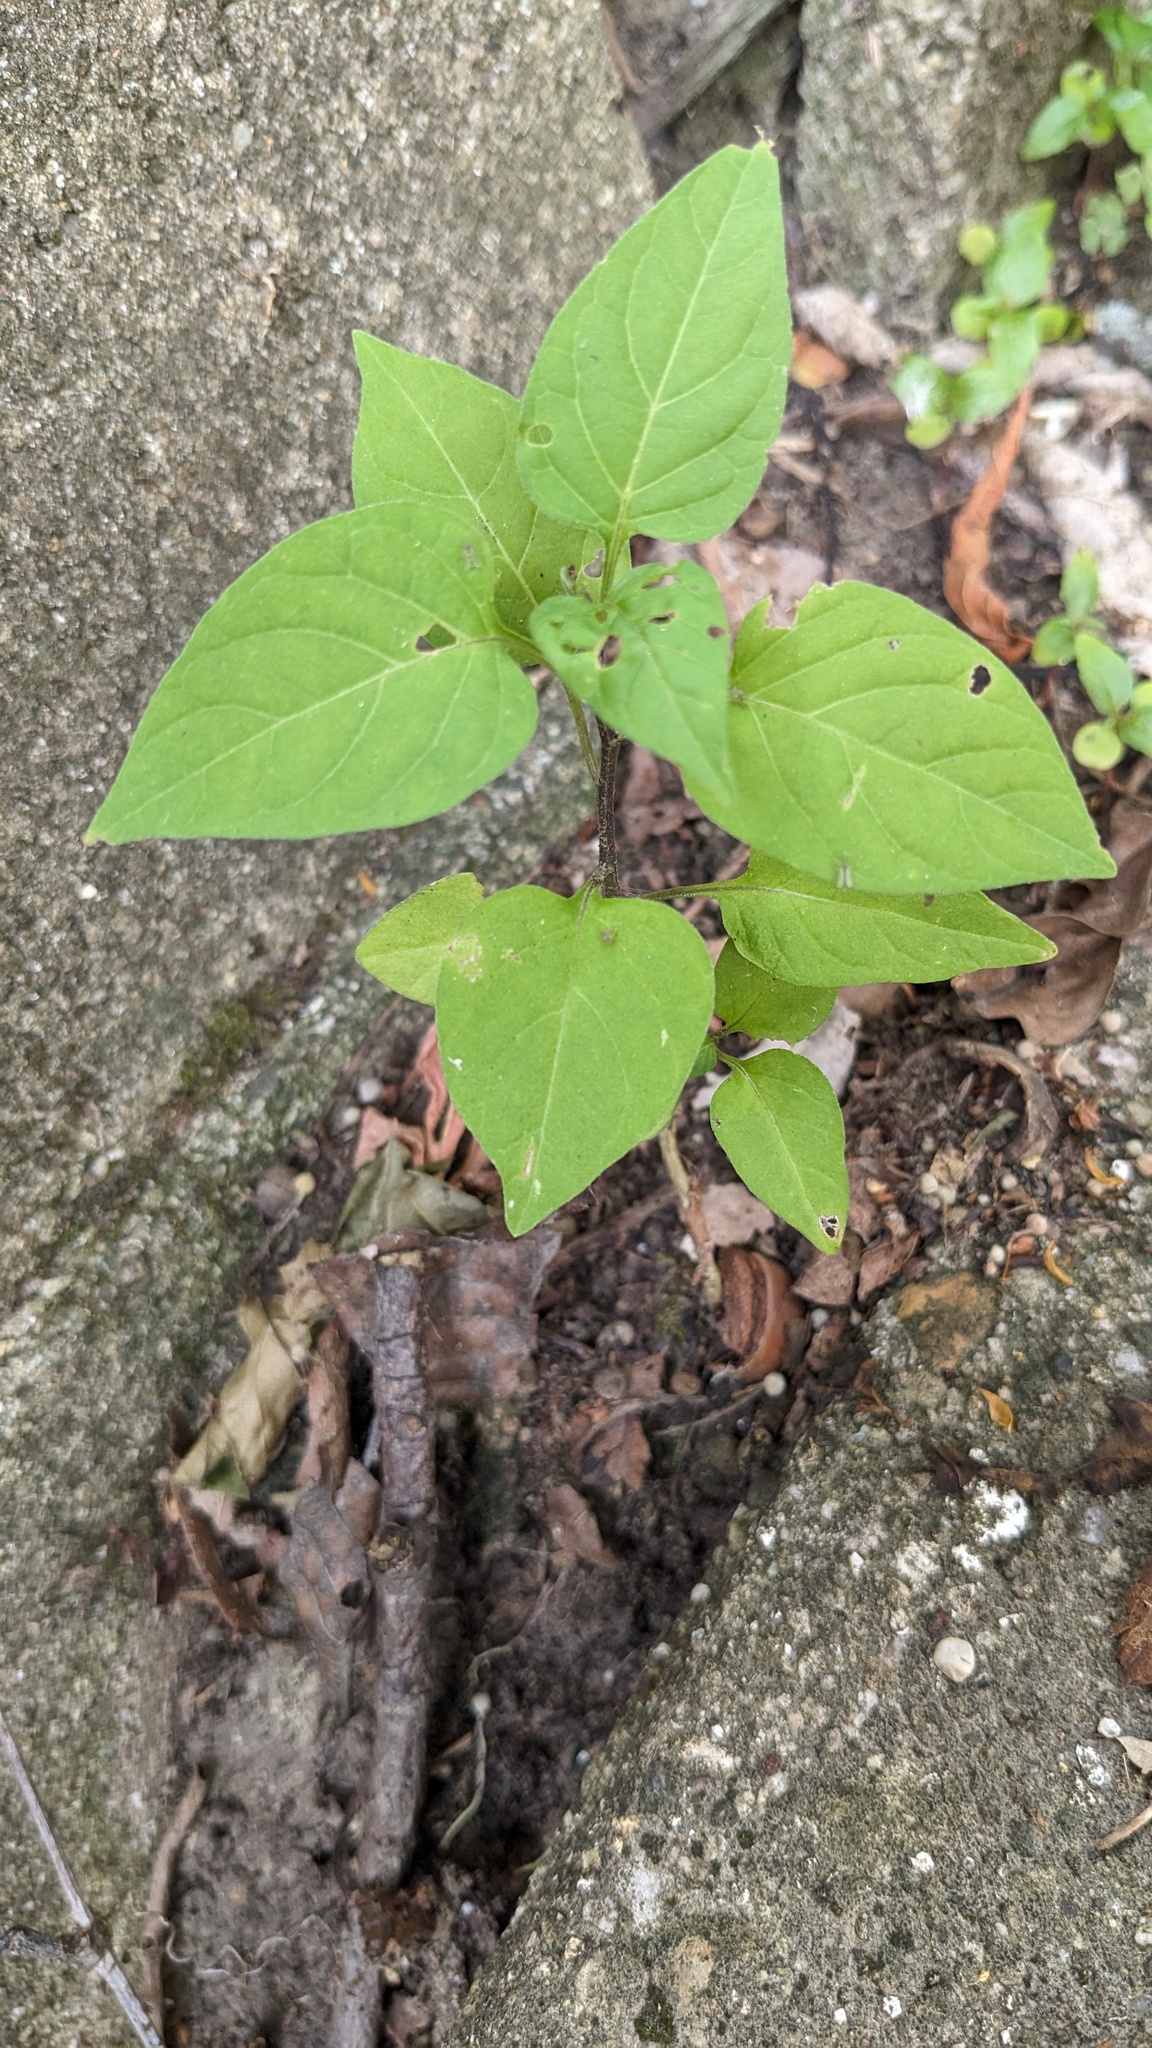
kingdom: Plantae
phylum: Tracheophyta
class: Magnoliopsida
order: Solanales
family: Solanaceae
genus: Solanum
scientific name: Solanum dulcamara
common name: Climbing nightshade
